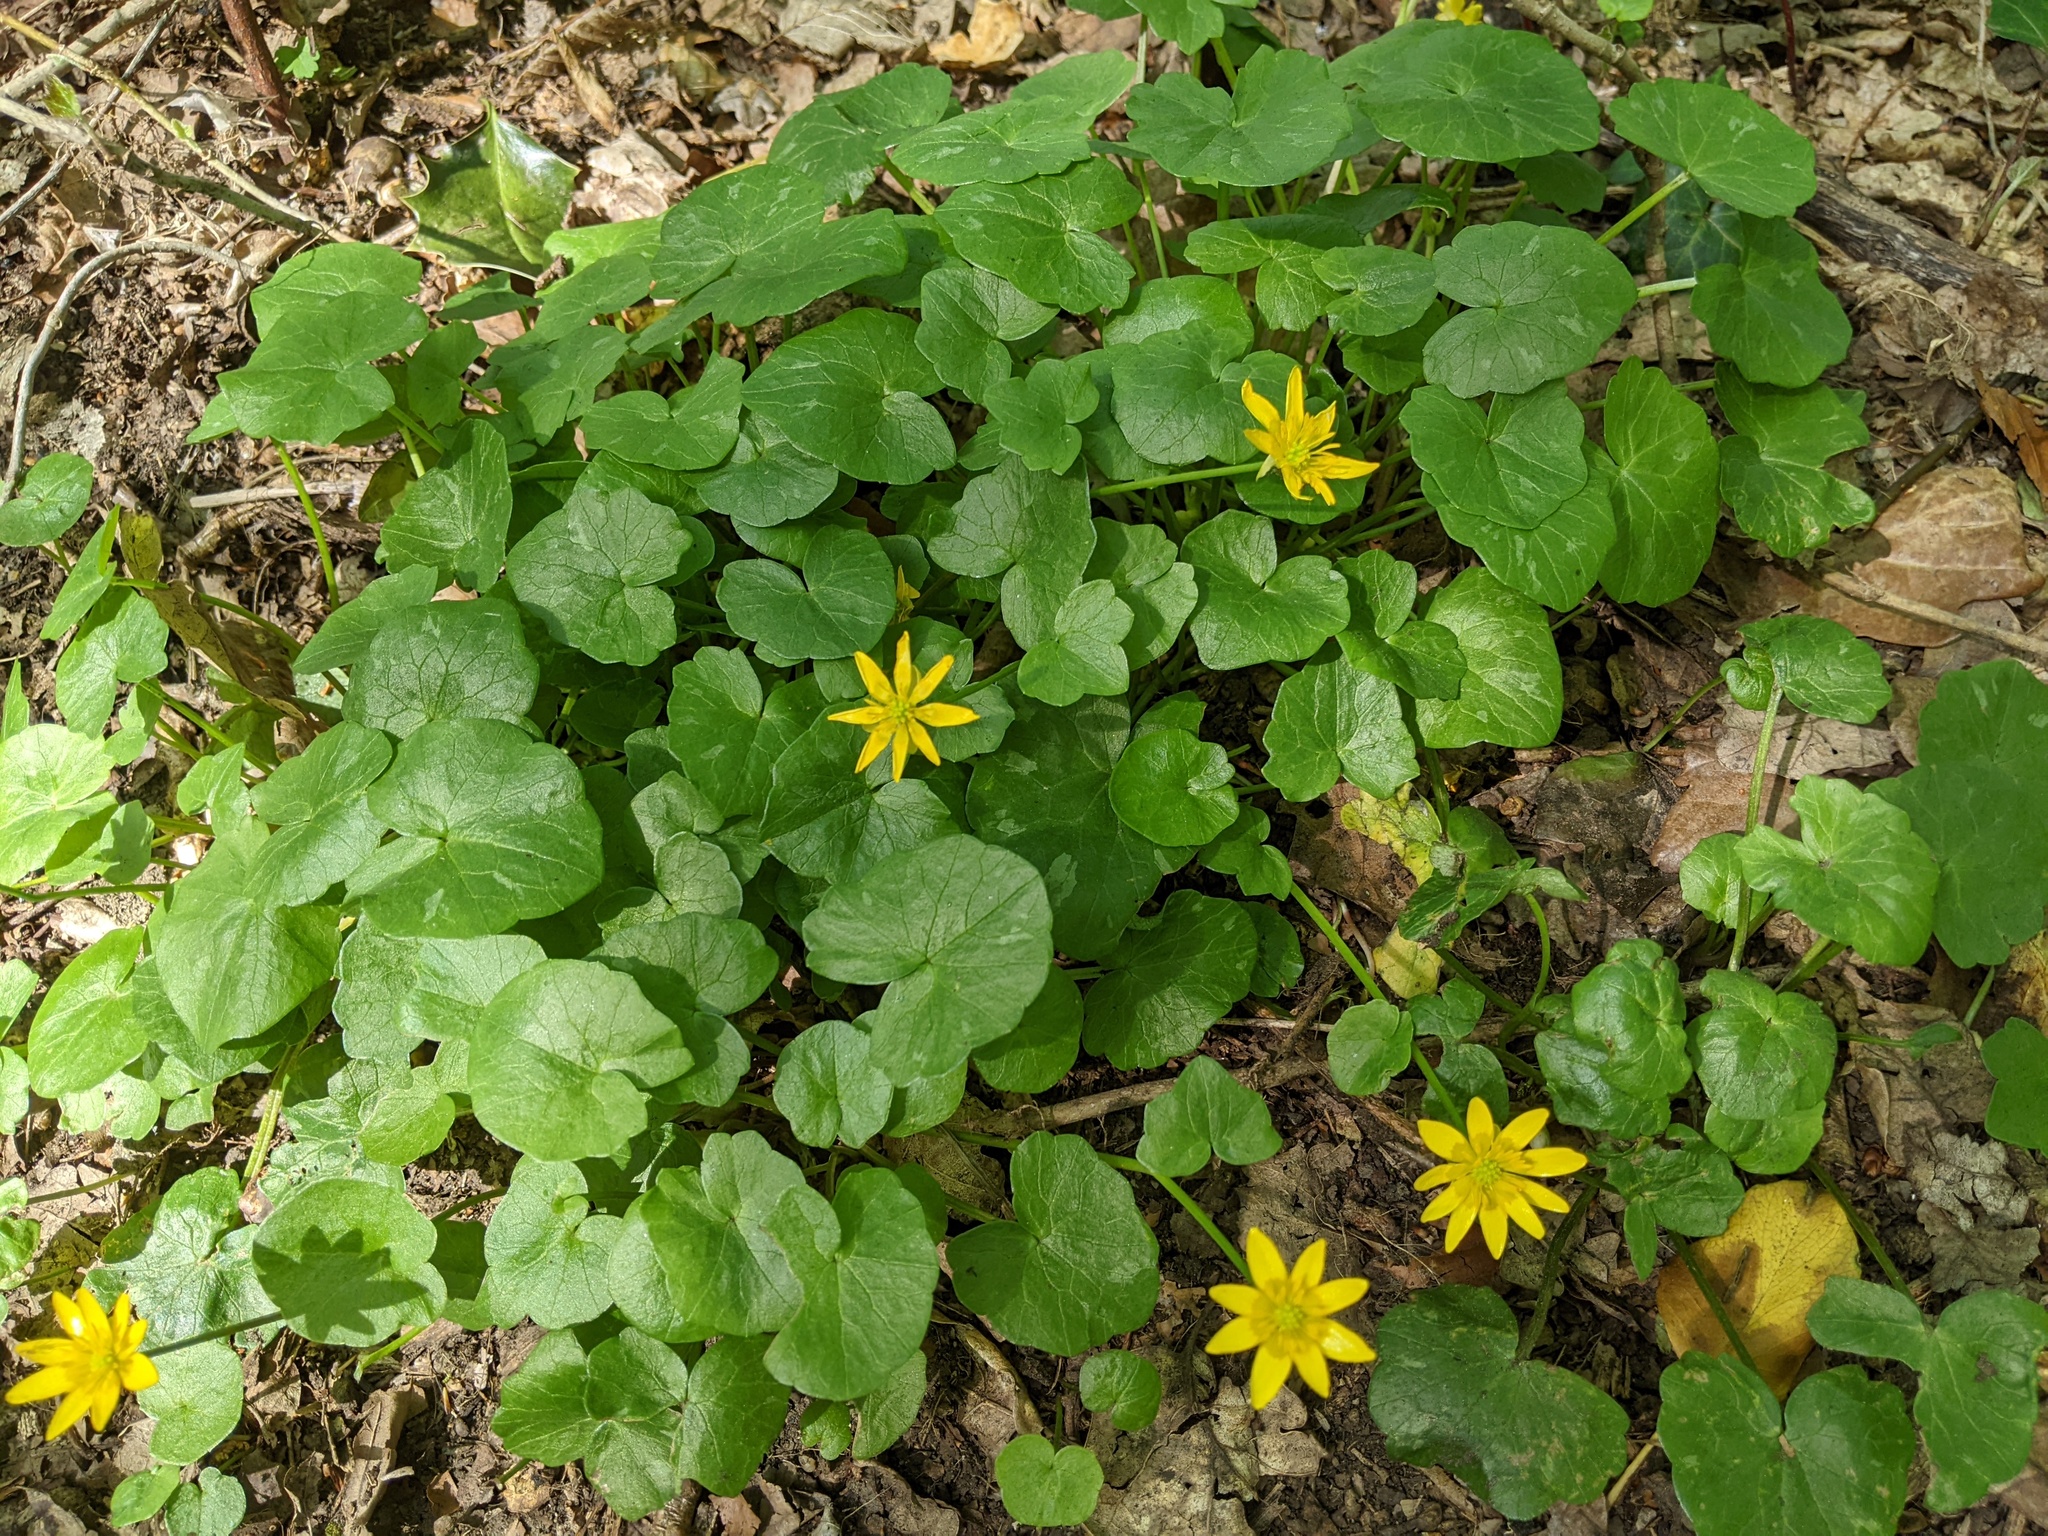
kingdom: Plantae
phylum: Tracheophyta
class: Magnoliopsida
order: Ranunculales
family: Ranunculaceae
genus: Ficaria
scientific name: Ficaria verna
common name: Lesser celandine
